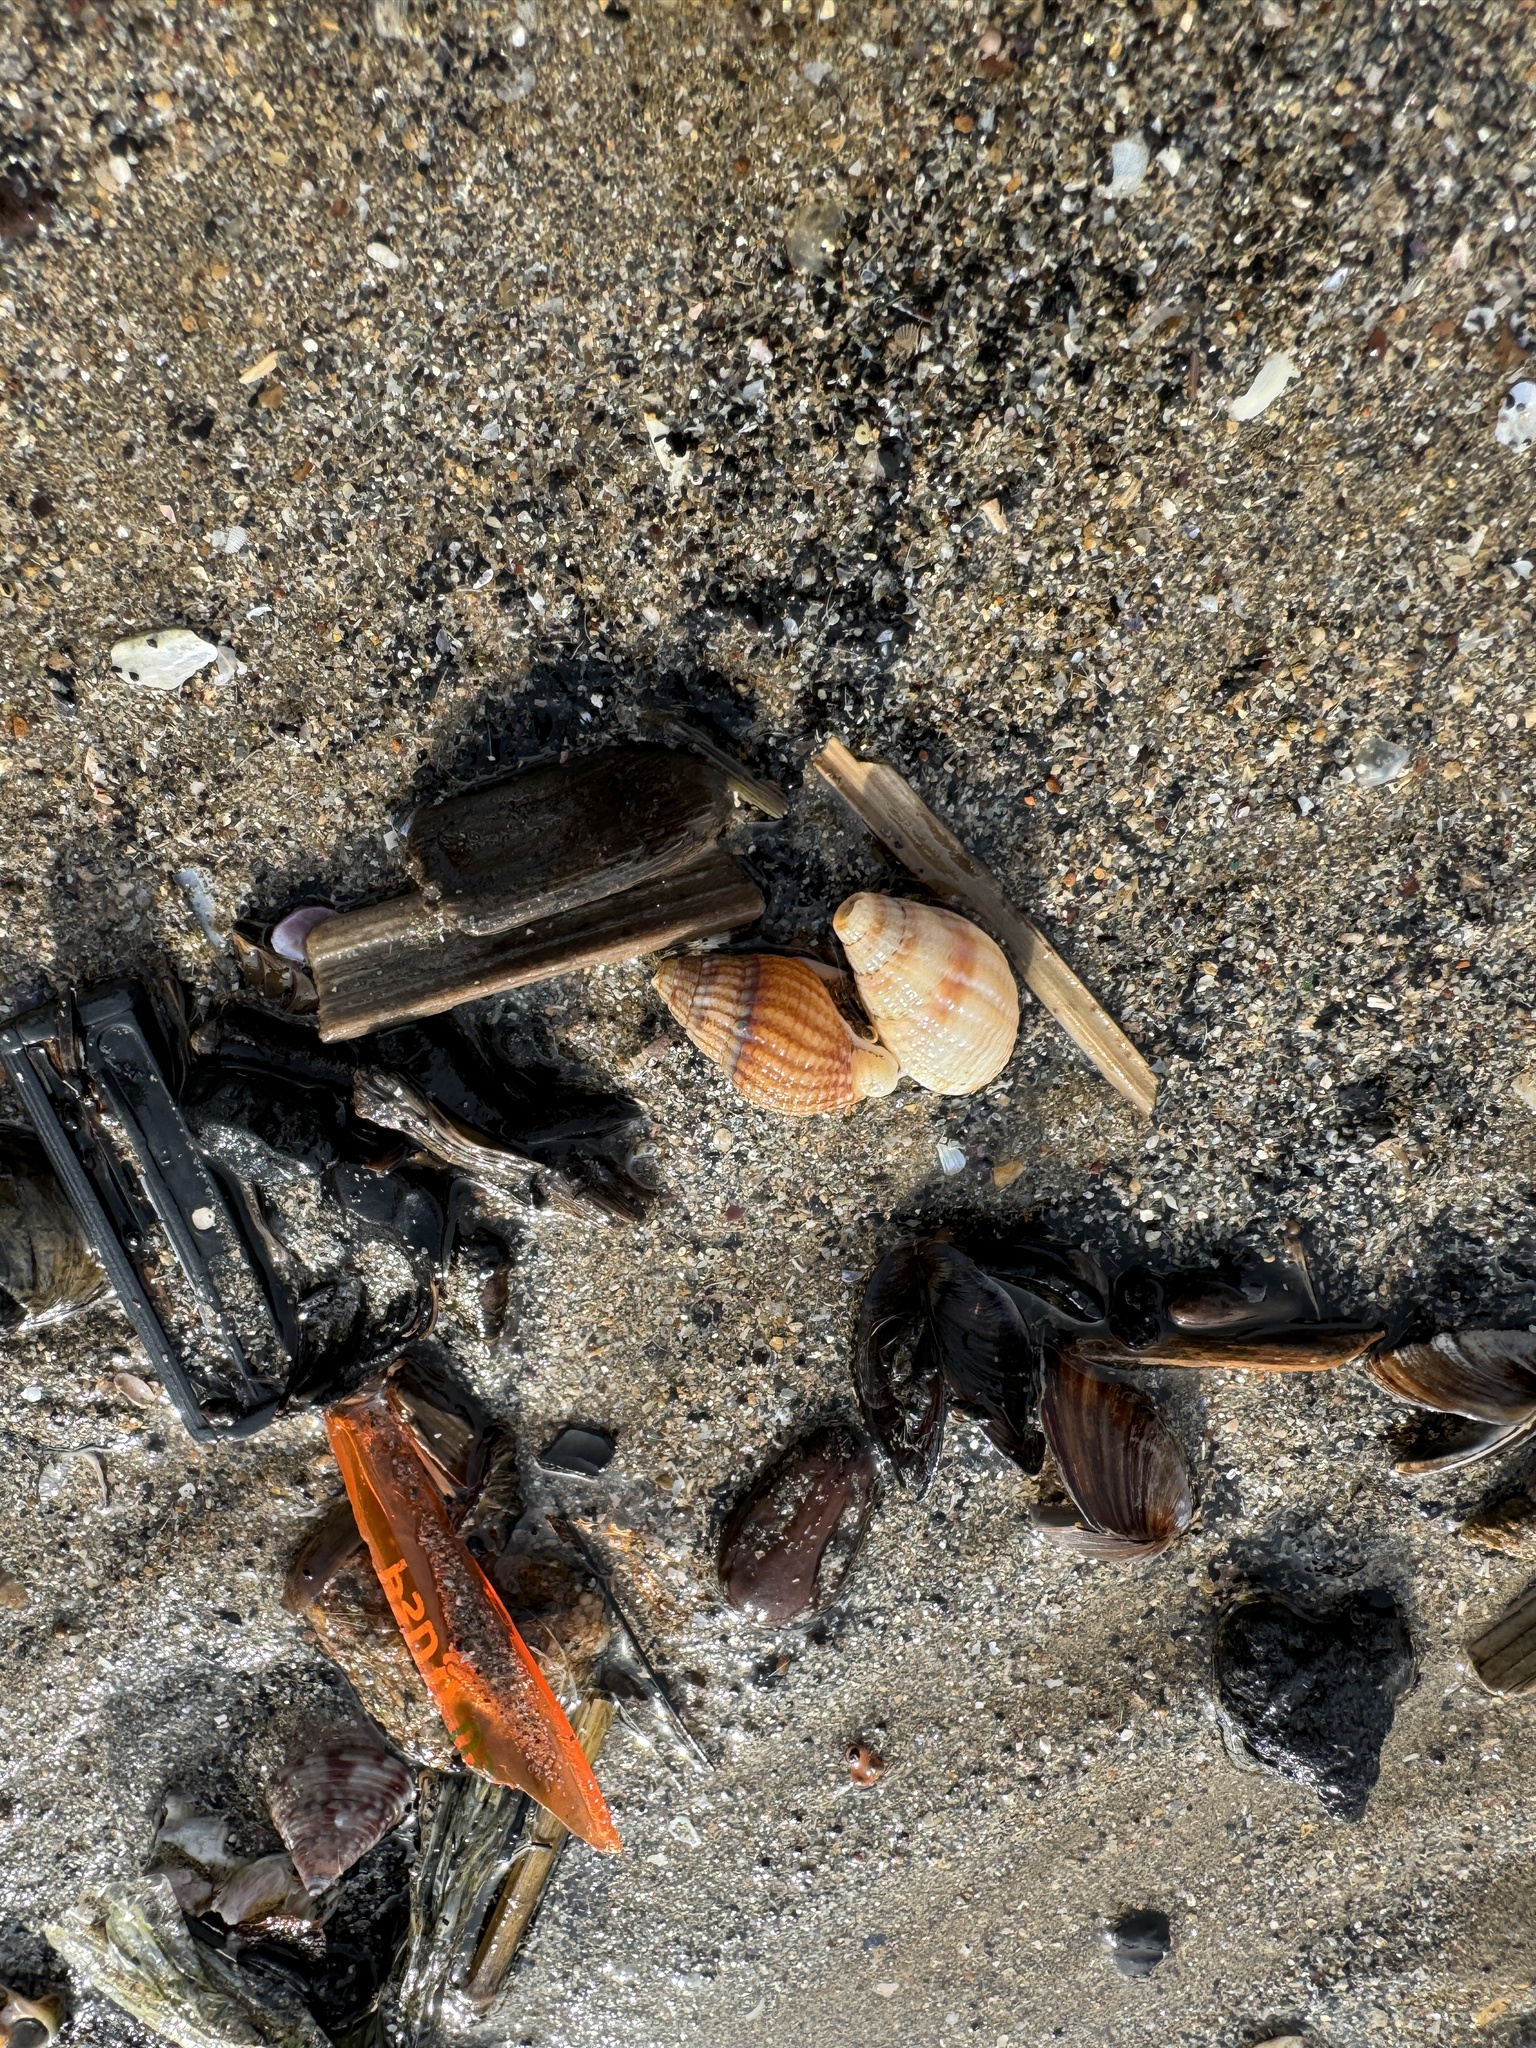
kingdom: Animalia
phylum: Mollusca
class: Gastropoda
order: Neogastropoda
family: Nassariidae
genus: Tritia
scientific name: Tritia reticulata
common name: Netted dog whelk
